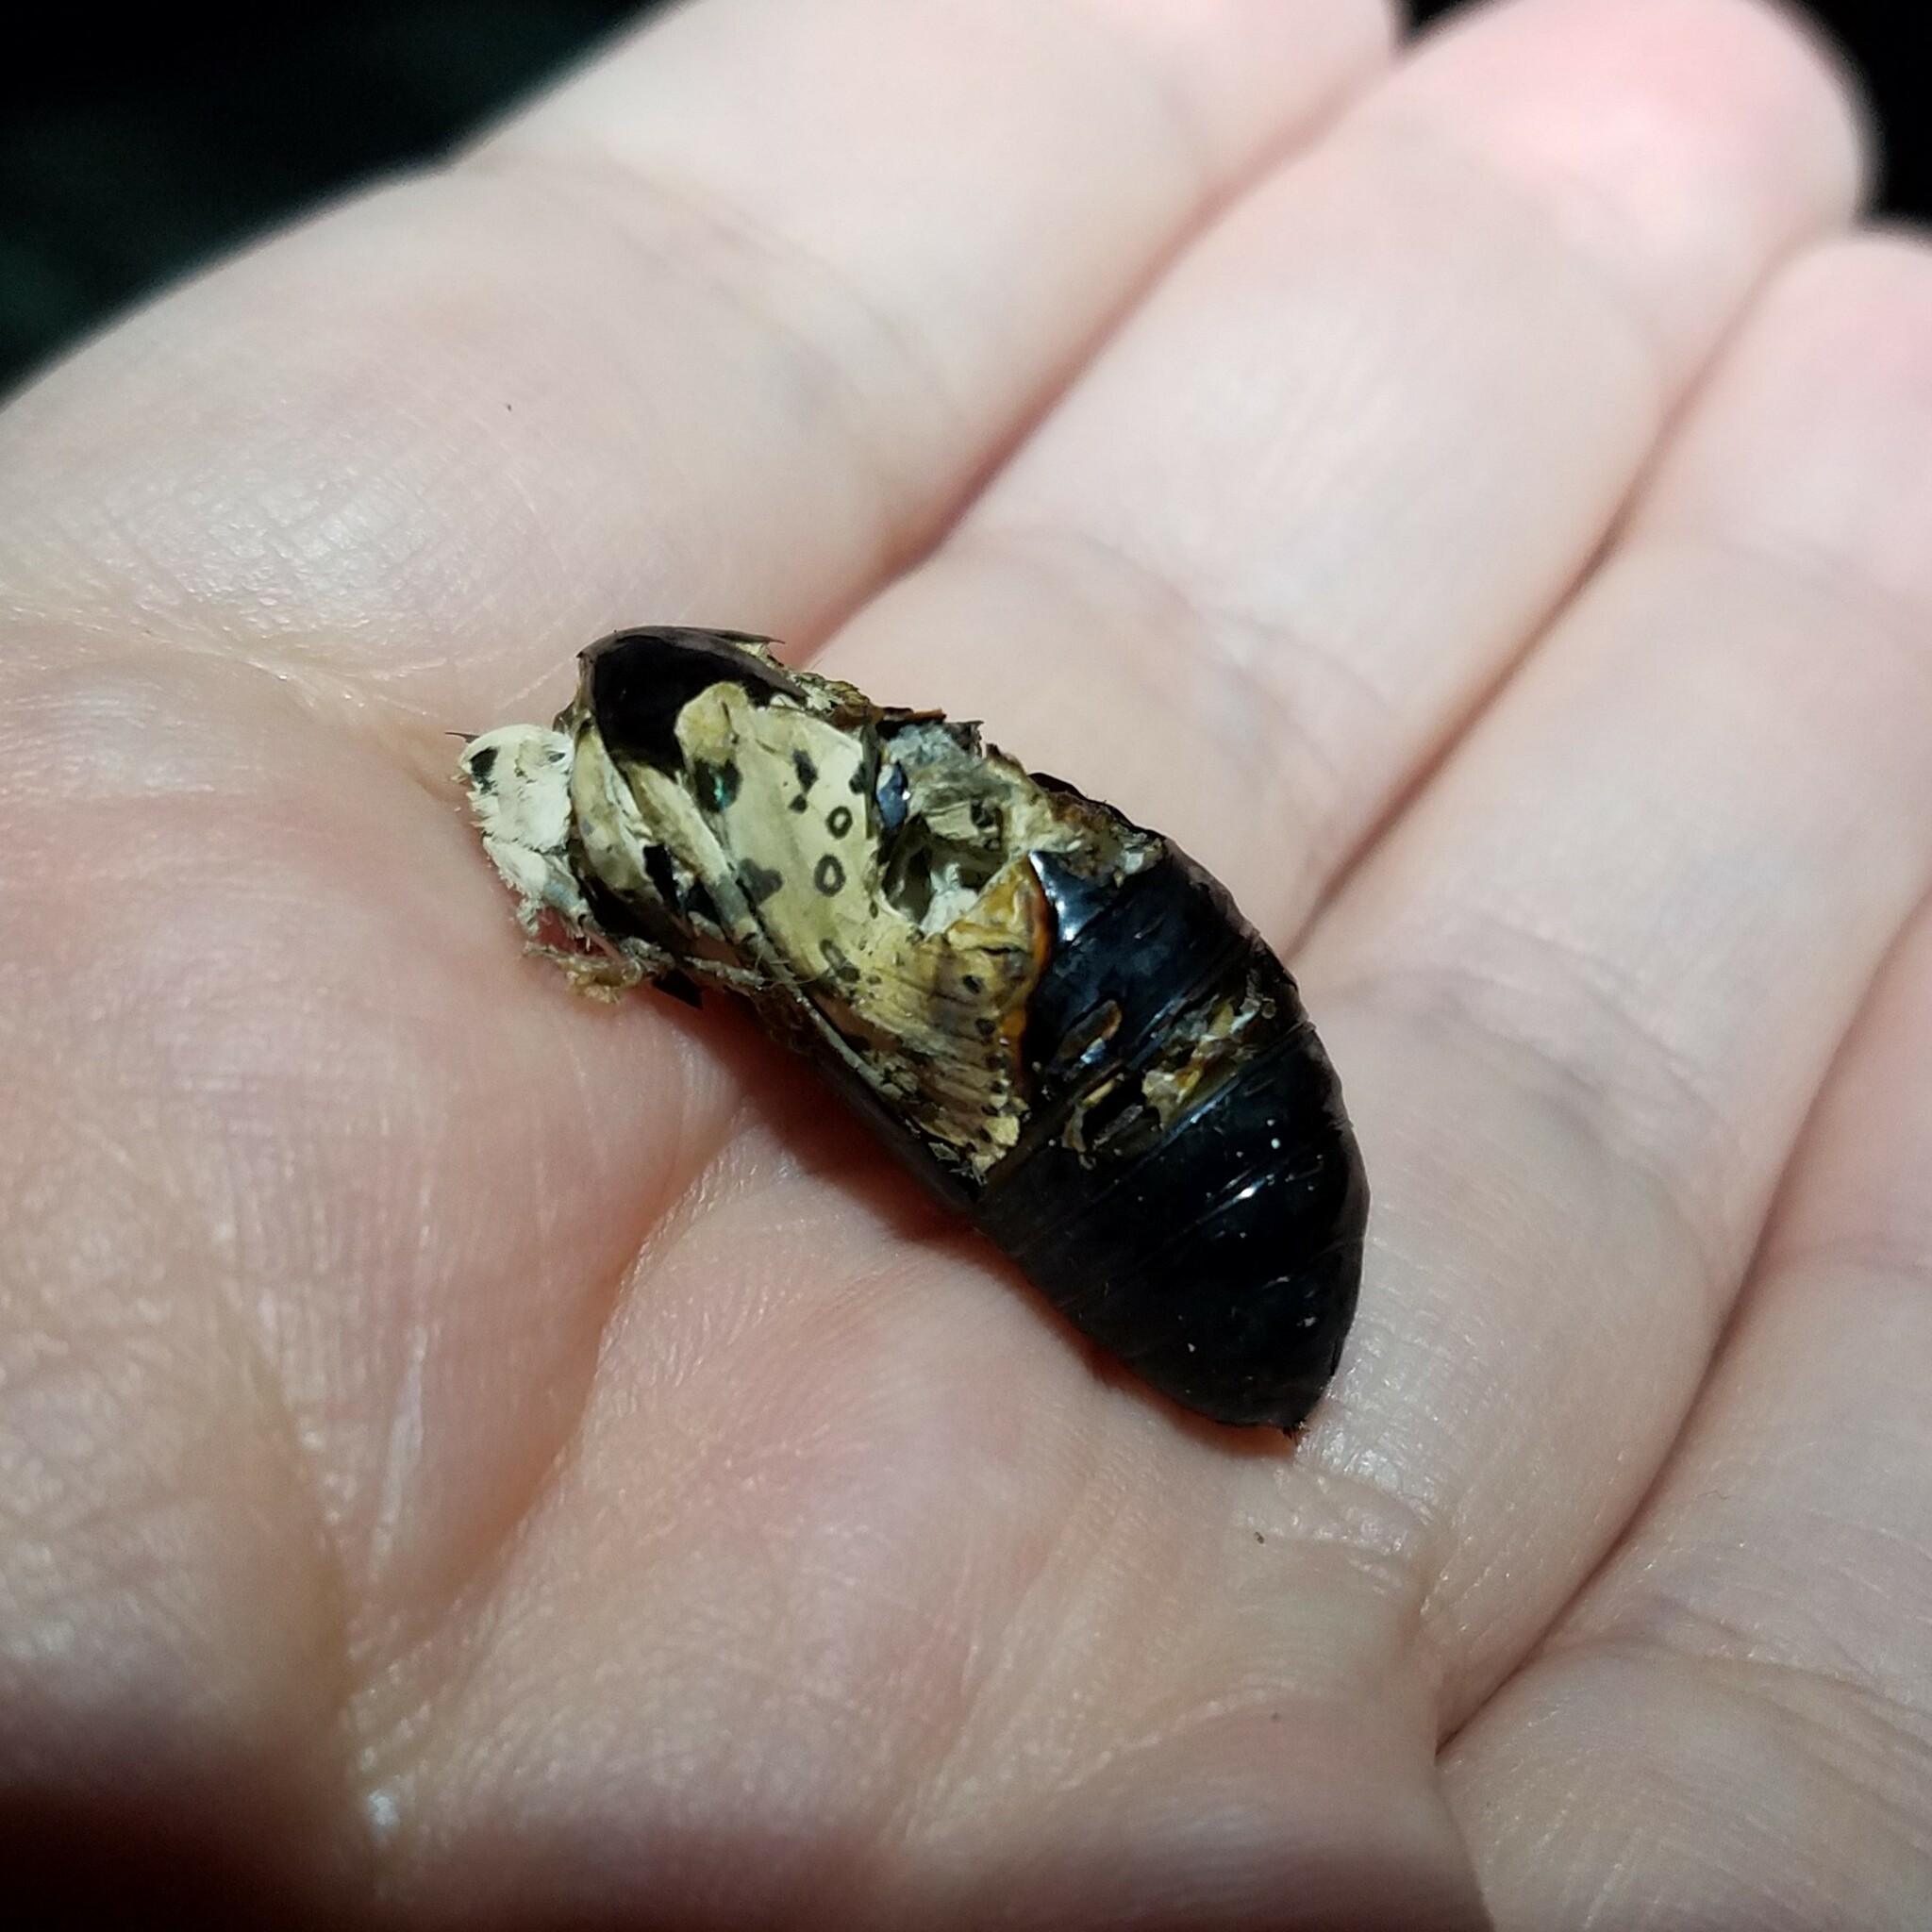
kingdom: Animalia
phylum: Arthropoda
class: Insecta
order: Lepidoptera
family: Erebidae
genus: Hypercompe
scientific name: Hypercompe scribonia
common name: Giant leopard moth
